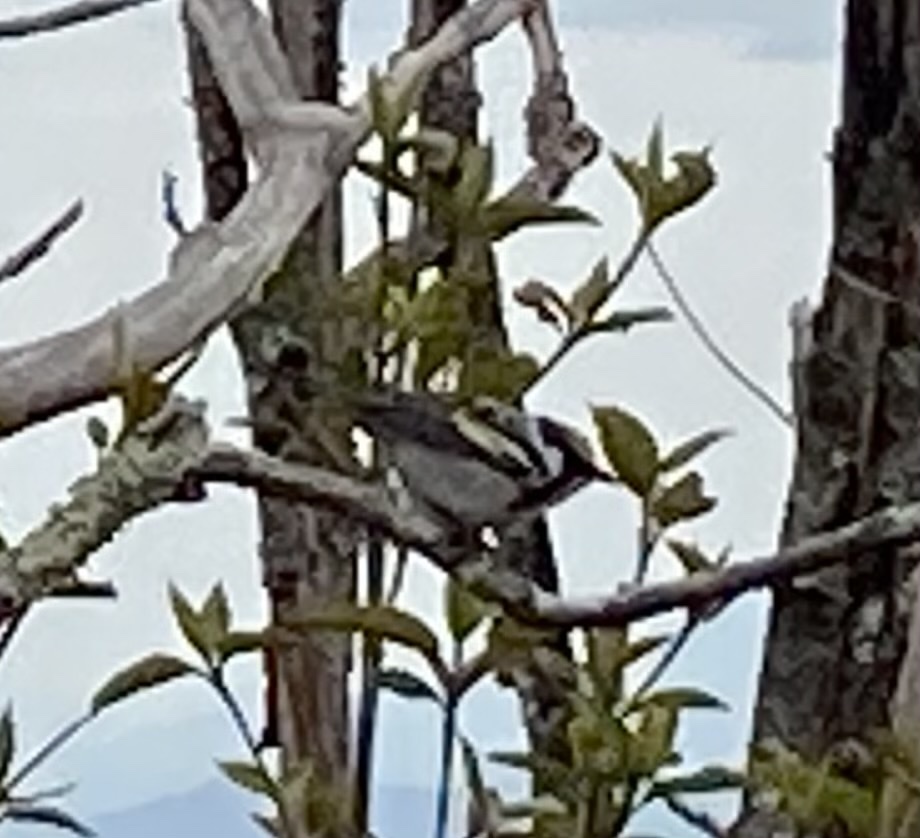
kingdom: Animalia
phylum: Chordata
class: Aves
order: Passeriformes
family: Parulidae
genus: Setophaga
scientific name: Setophaga pensylvanica
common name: Chestnut-sided warbler
